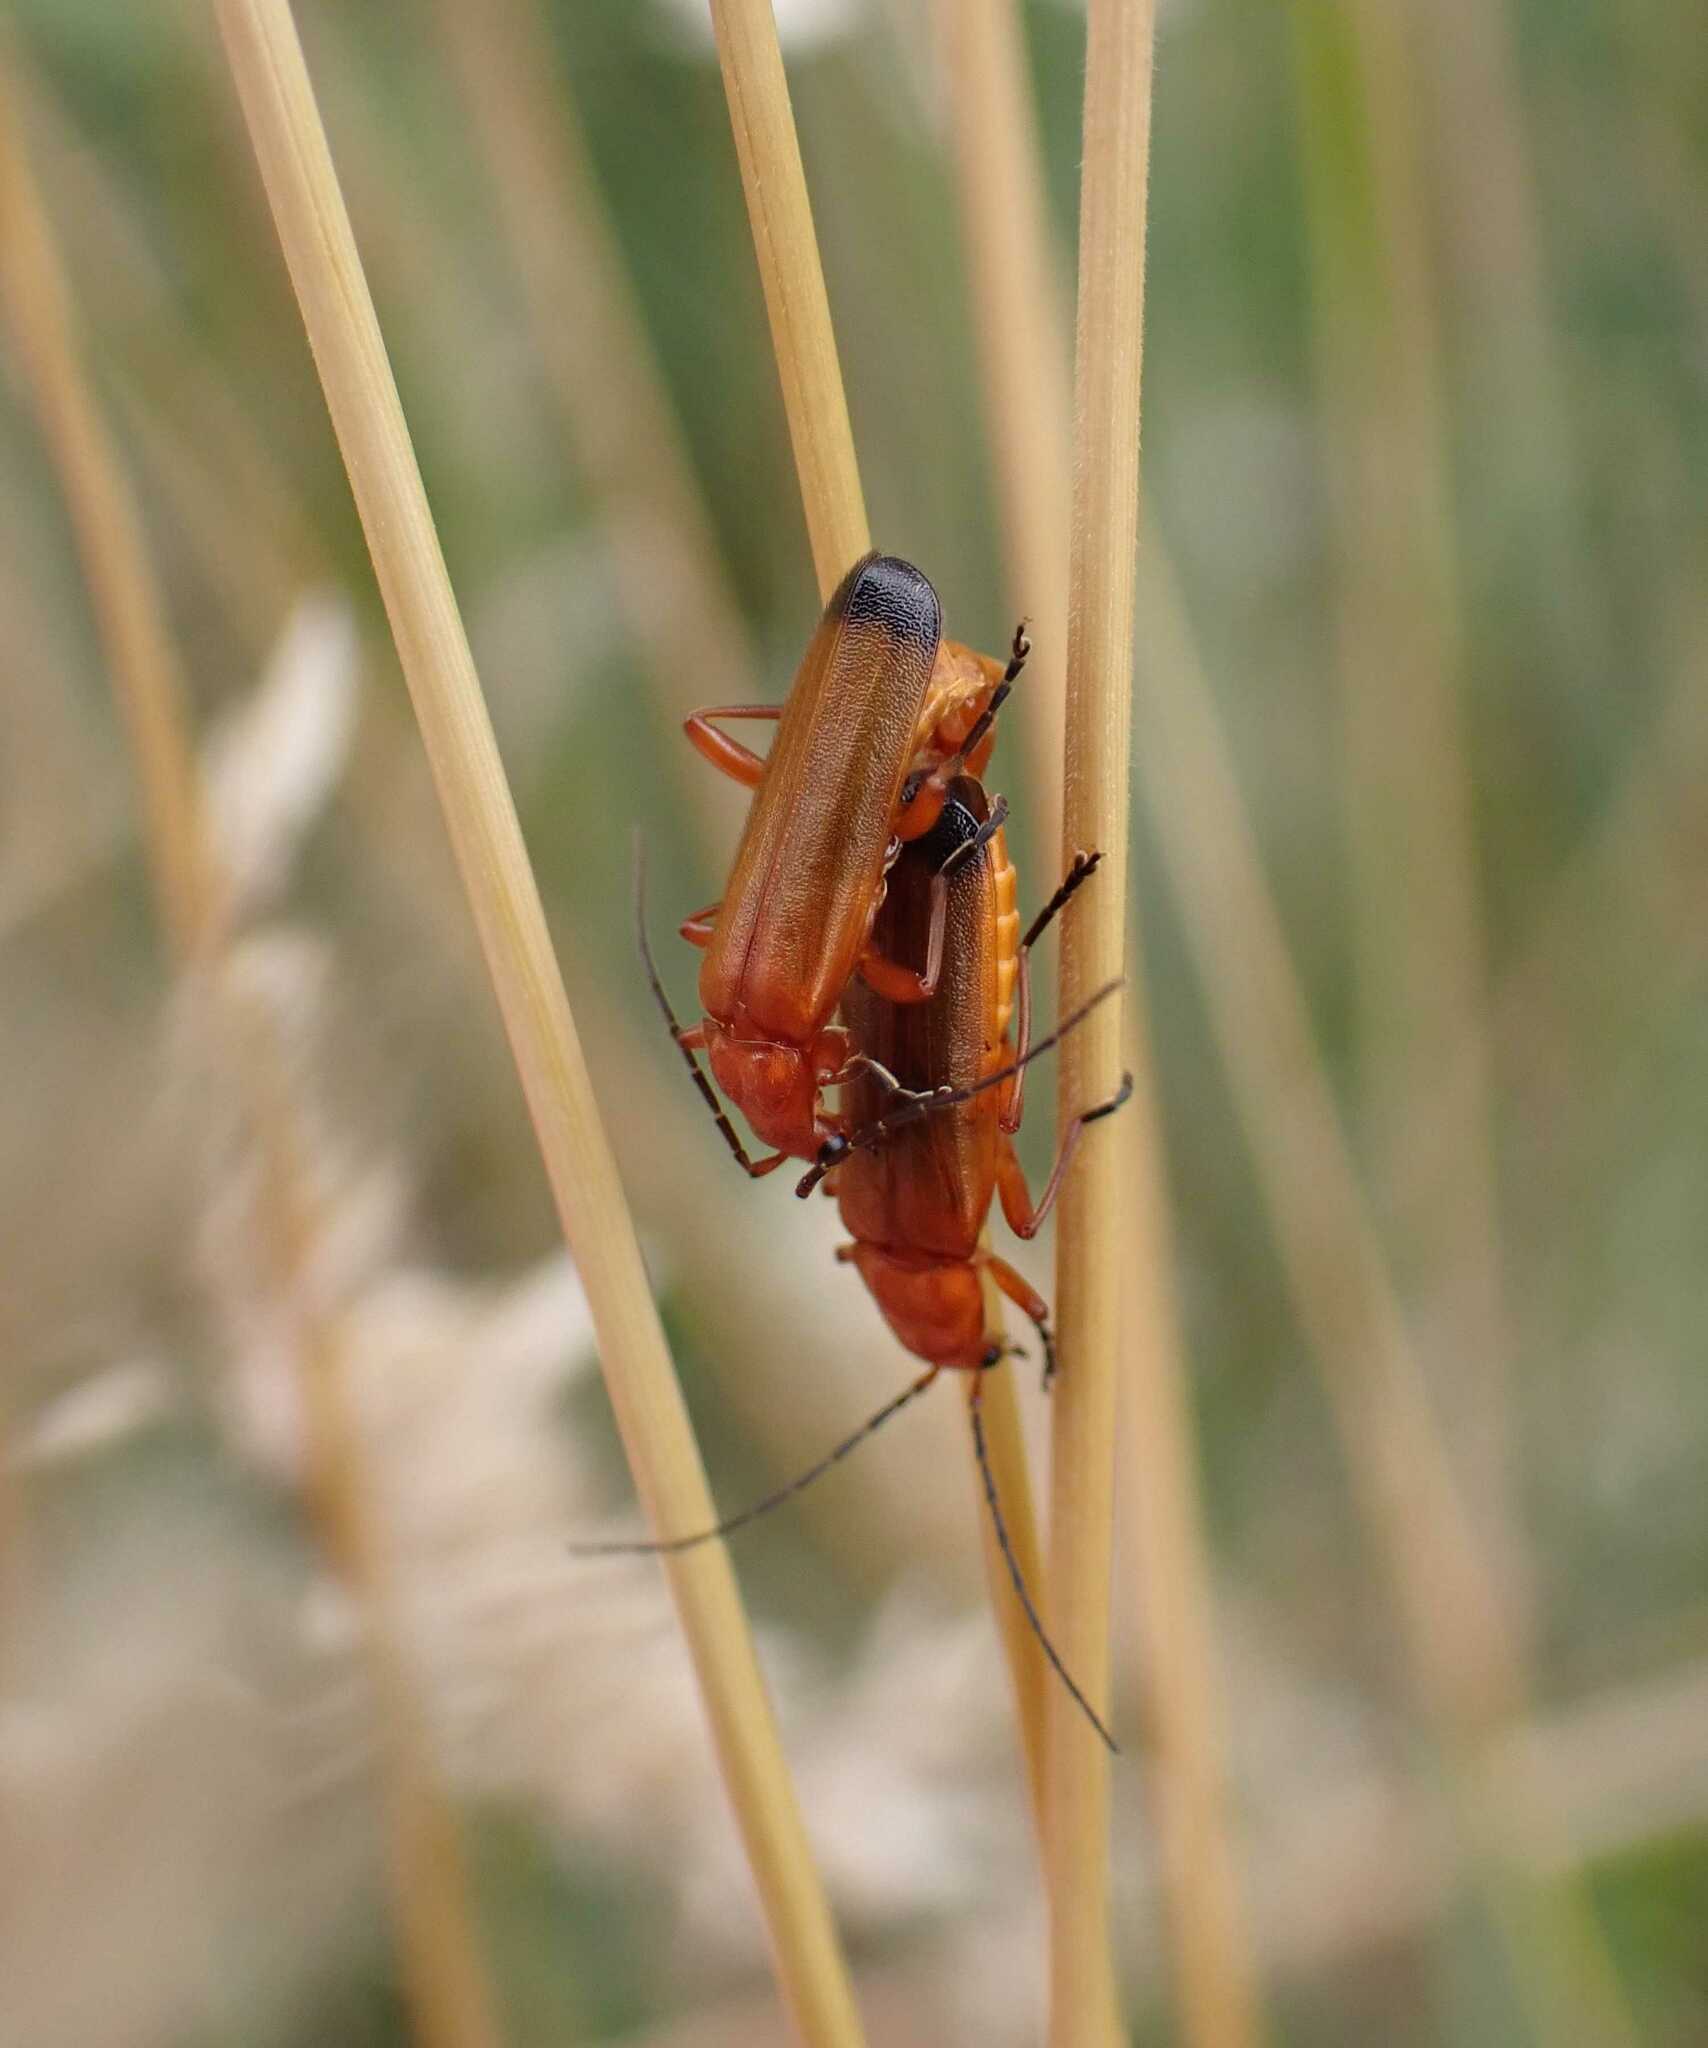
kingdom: Animalia
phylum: Arthropoda
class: Insecta
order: Coleoptera
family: Cantharidae
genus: Rhagonycha
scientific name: Rhagonycha fulva
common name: Common red soldier beetle
